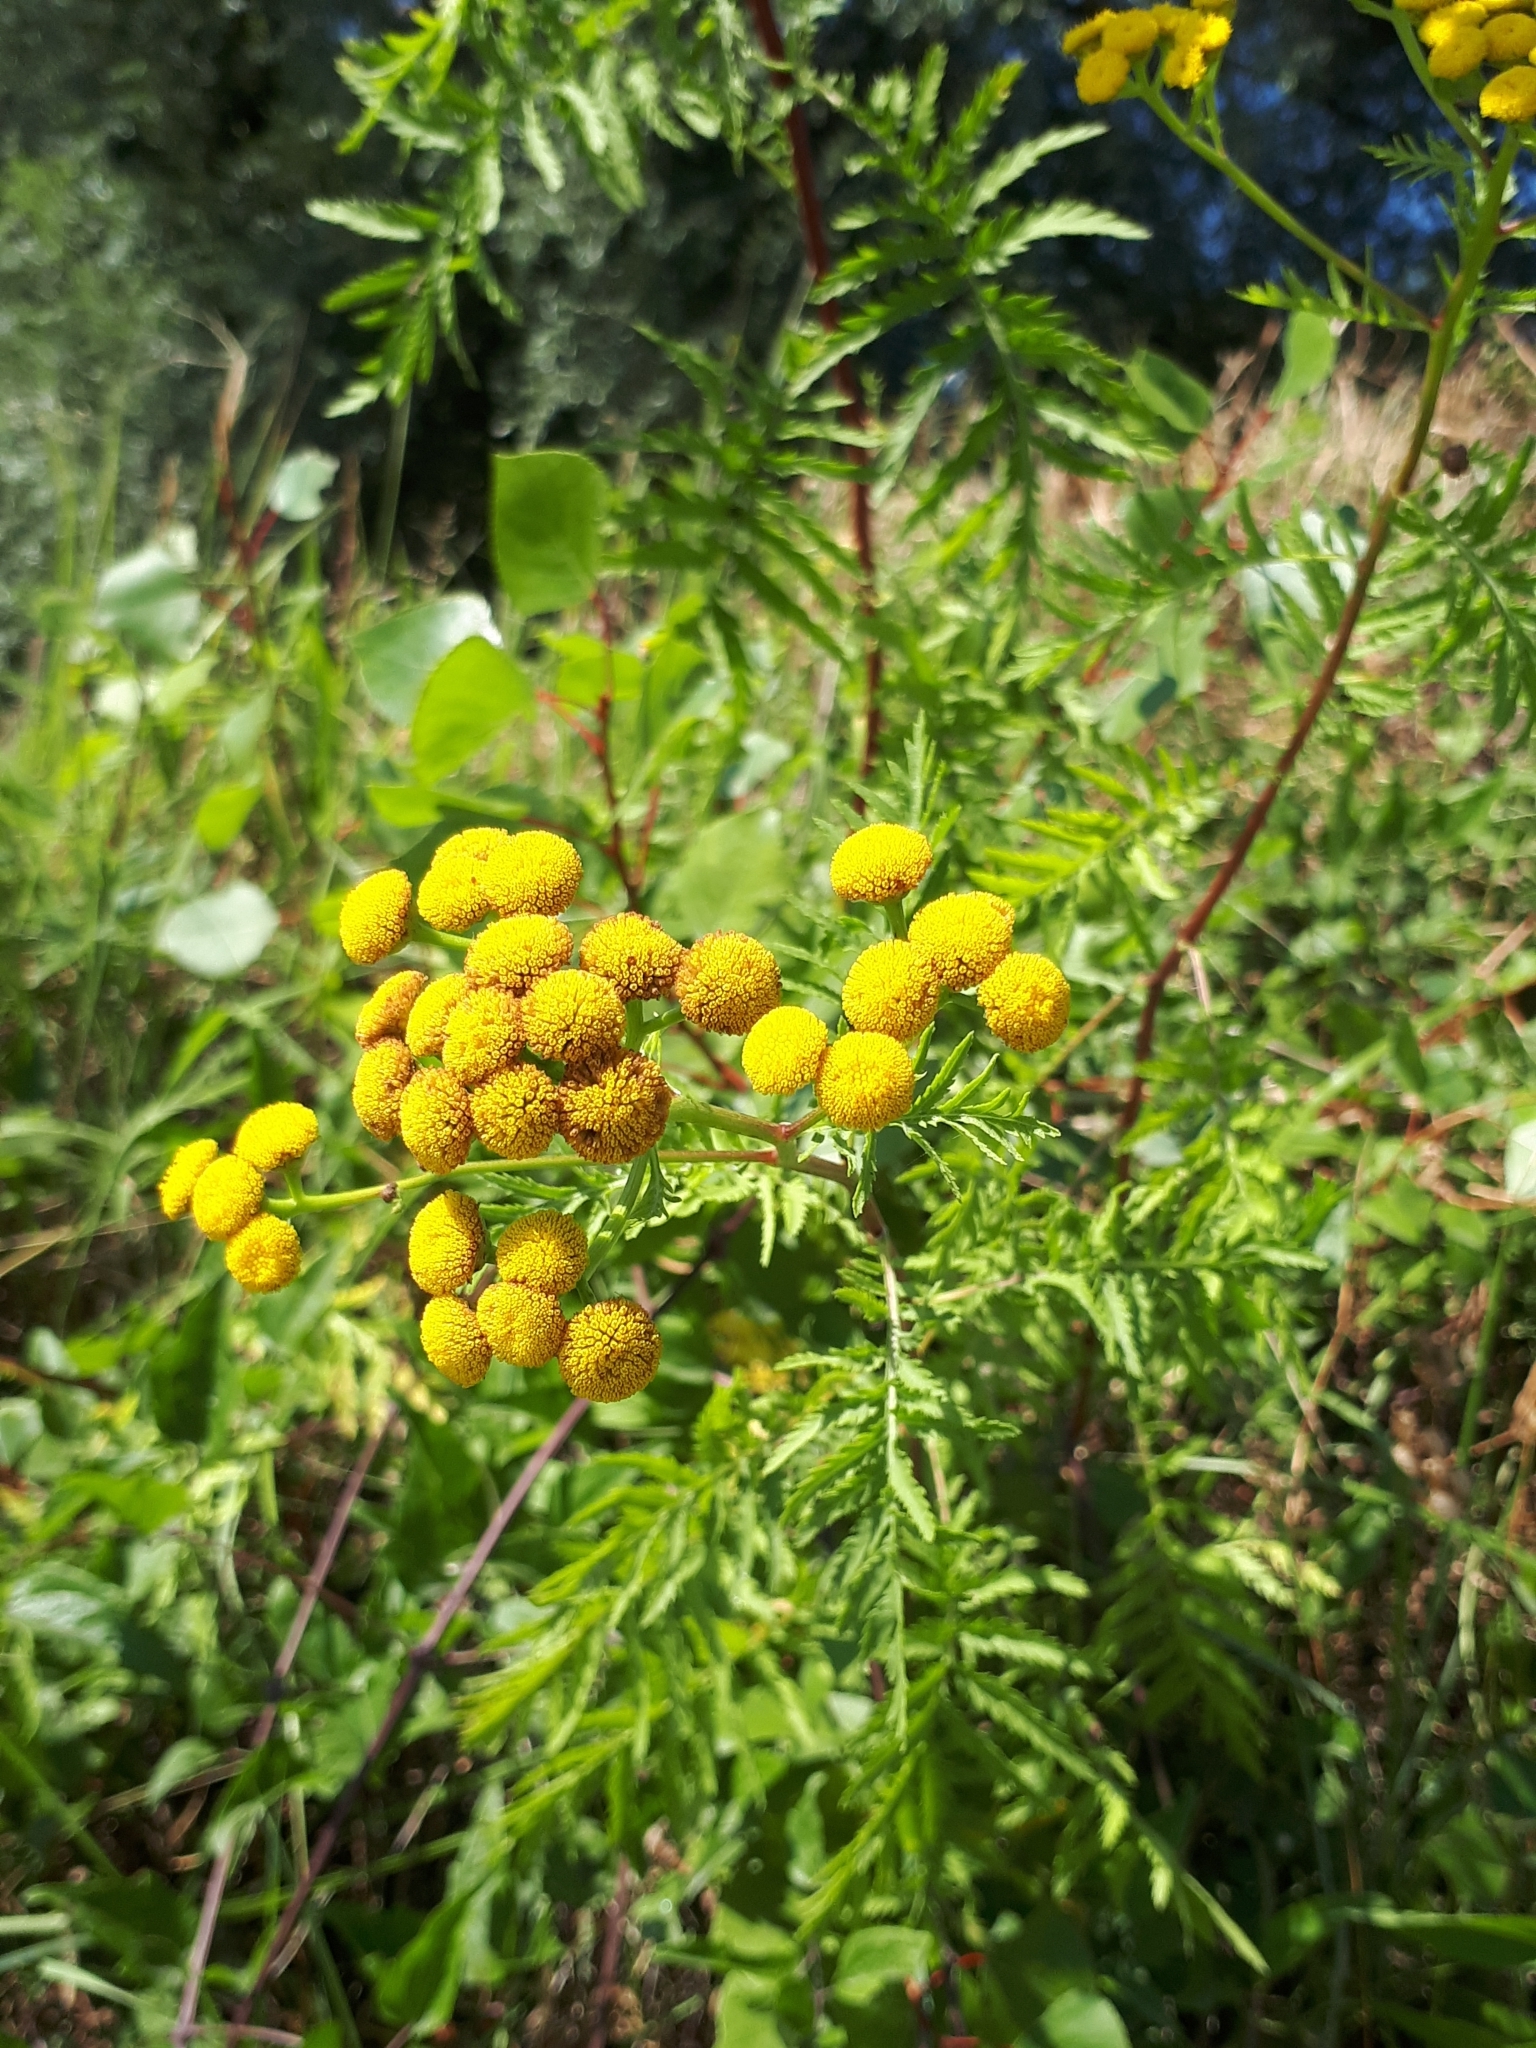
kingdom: Plantae
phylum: Tracheophyta
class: Magnoliopsida
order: Asterales
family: Asteraceae
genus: Tanacetum
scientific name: Tanacetum vulgare
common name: Common tansy
